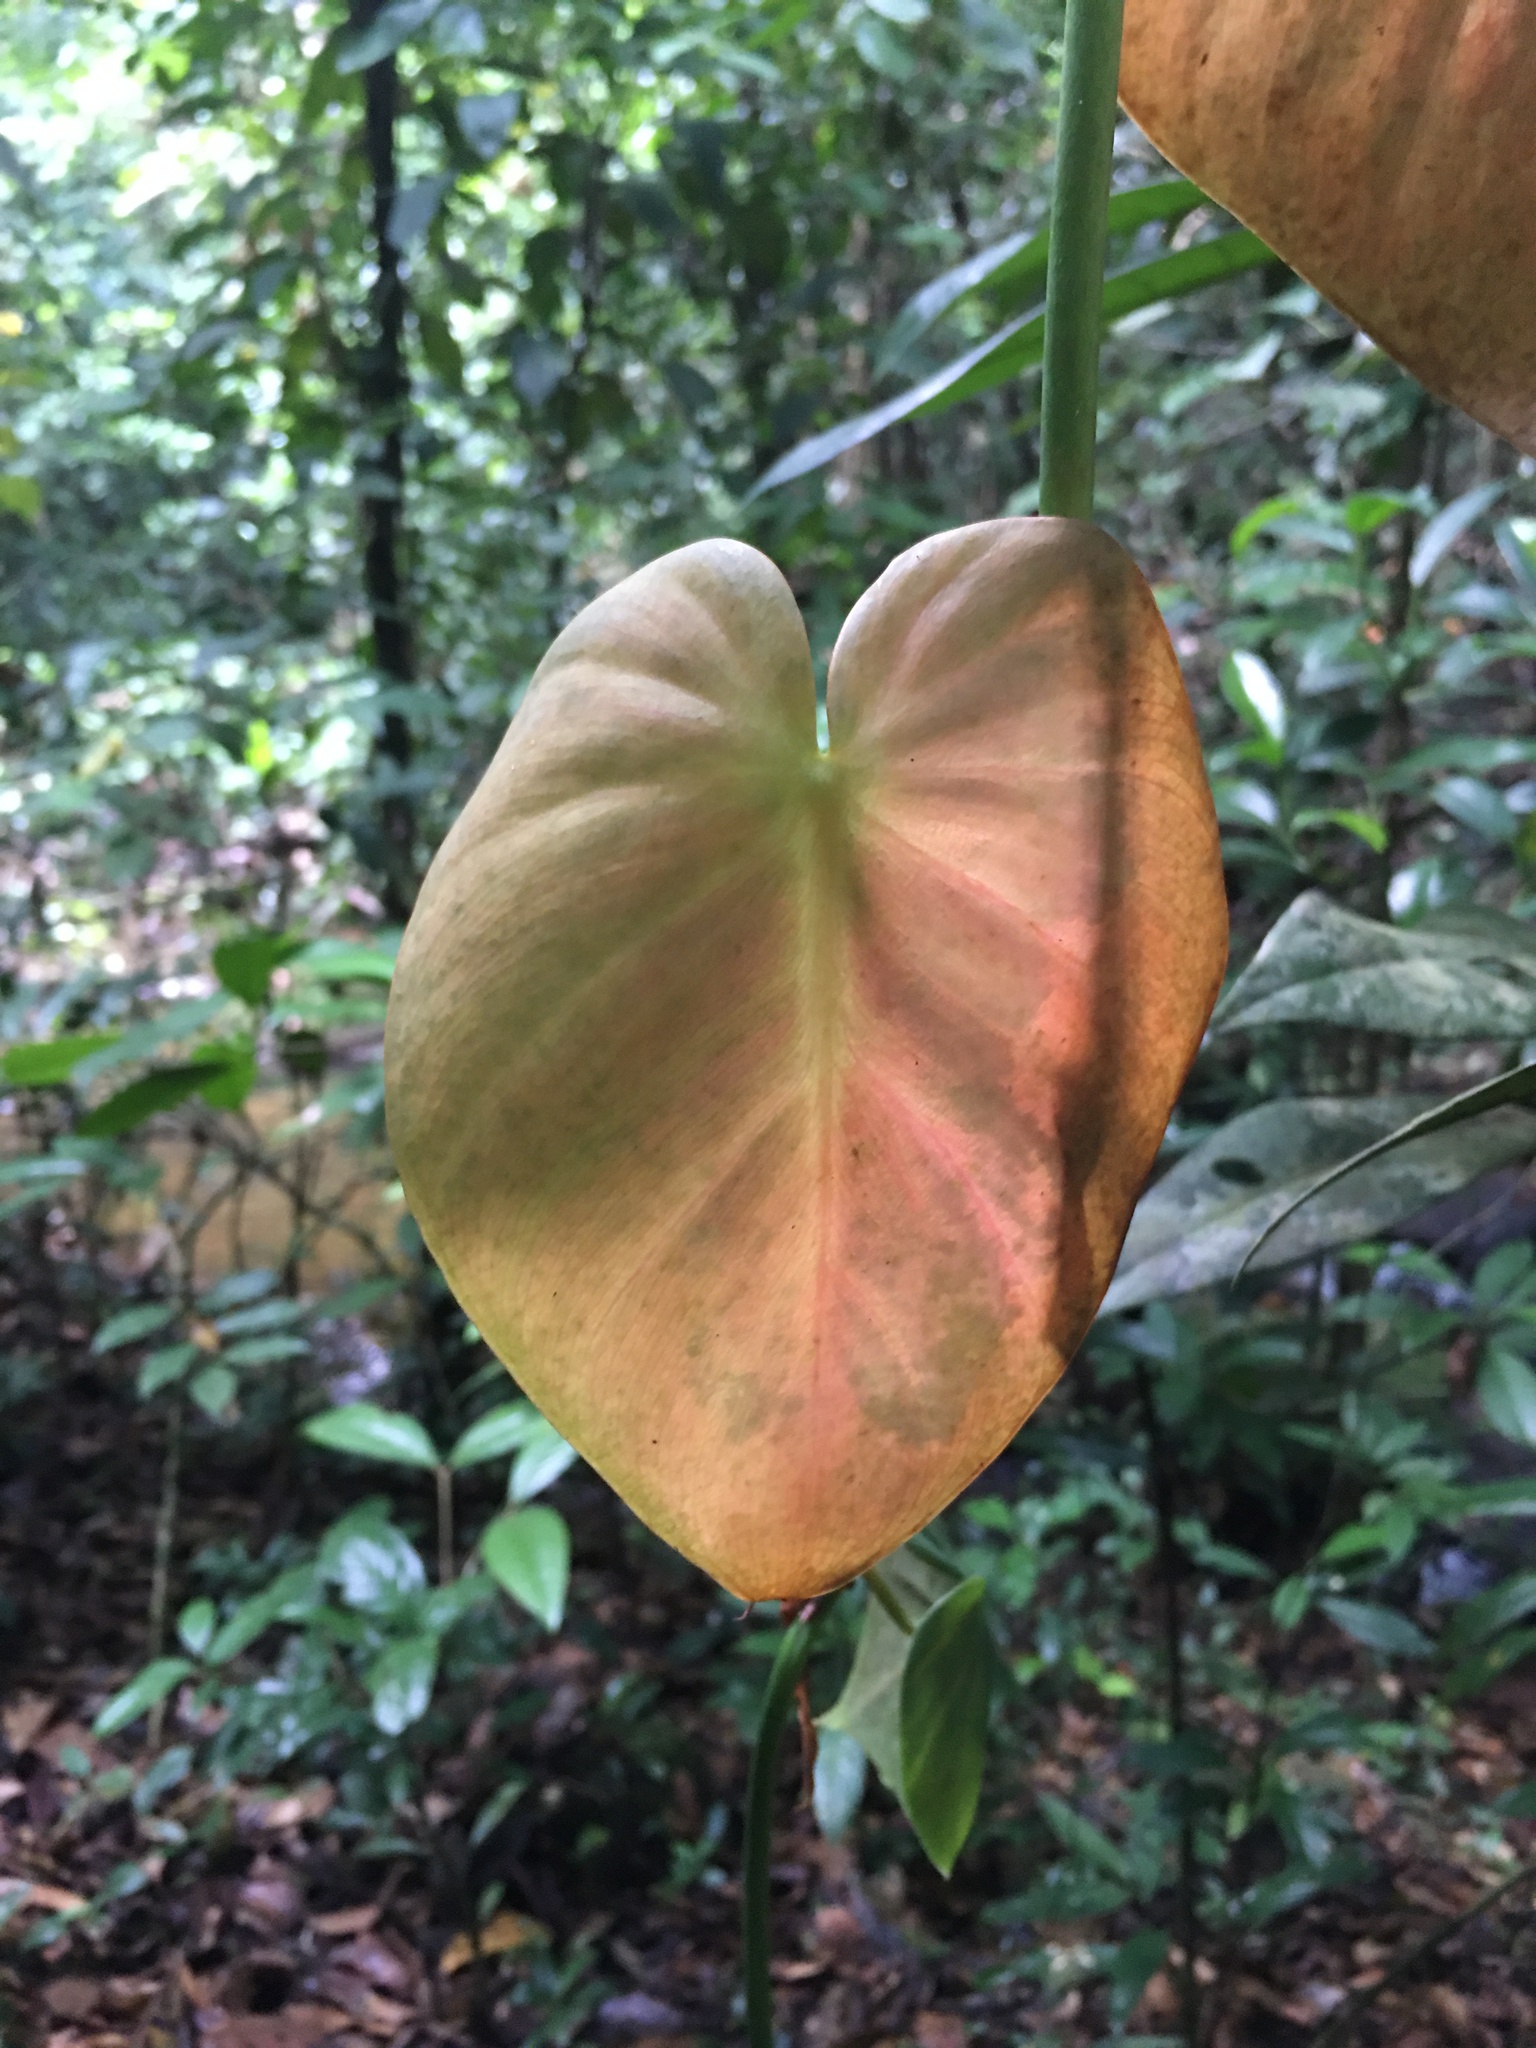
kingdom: Plantae
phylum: Tracheophyta
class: Liliopsida
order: Alismatales
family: Araceae
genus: Philodendron
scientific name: Philodendron hederaceum
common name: Vilevine
